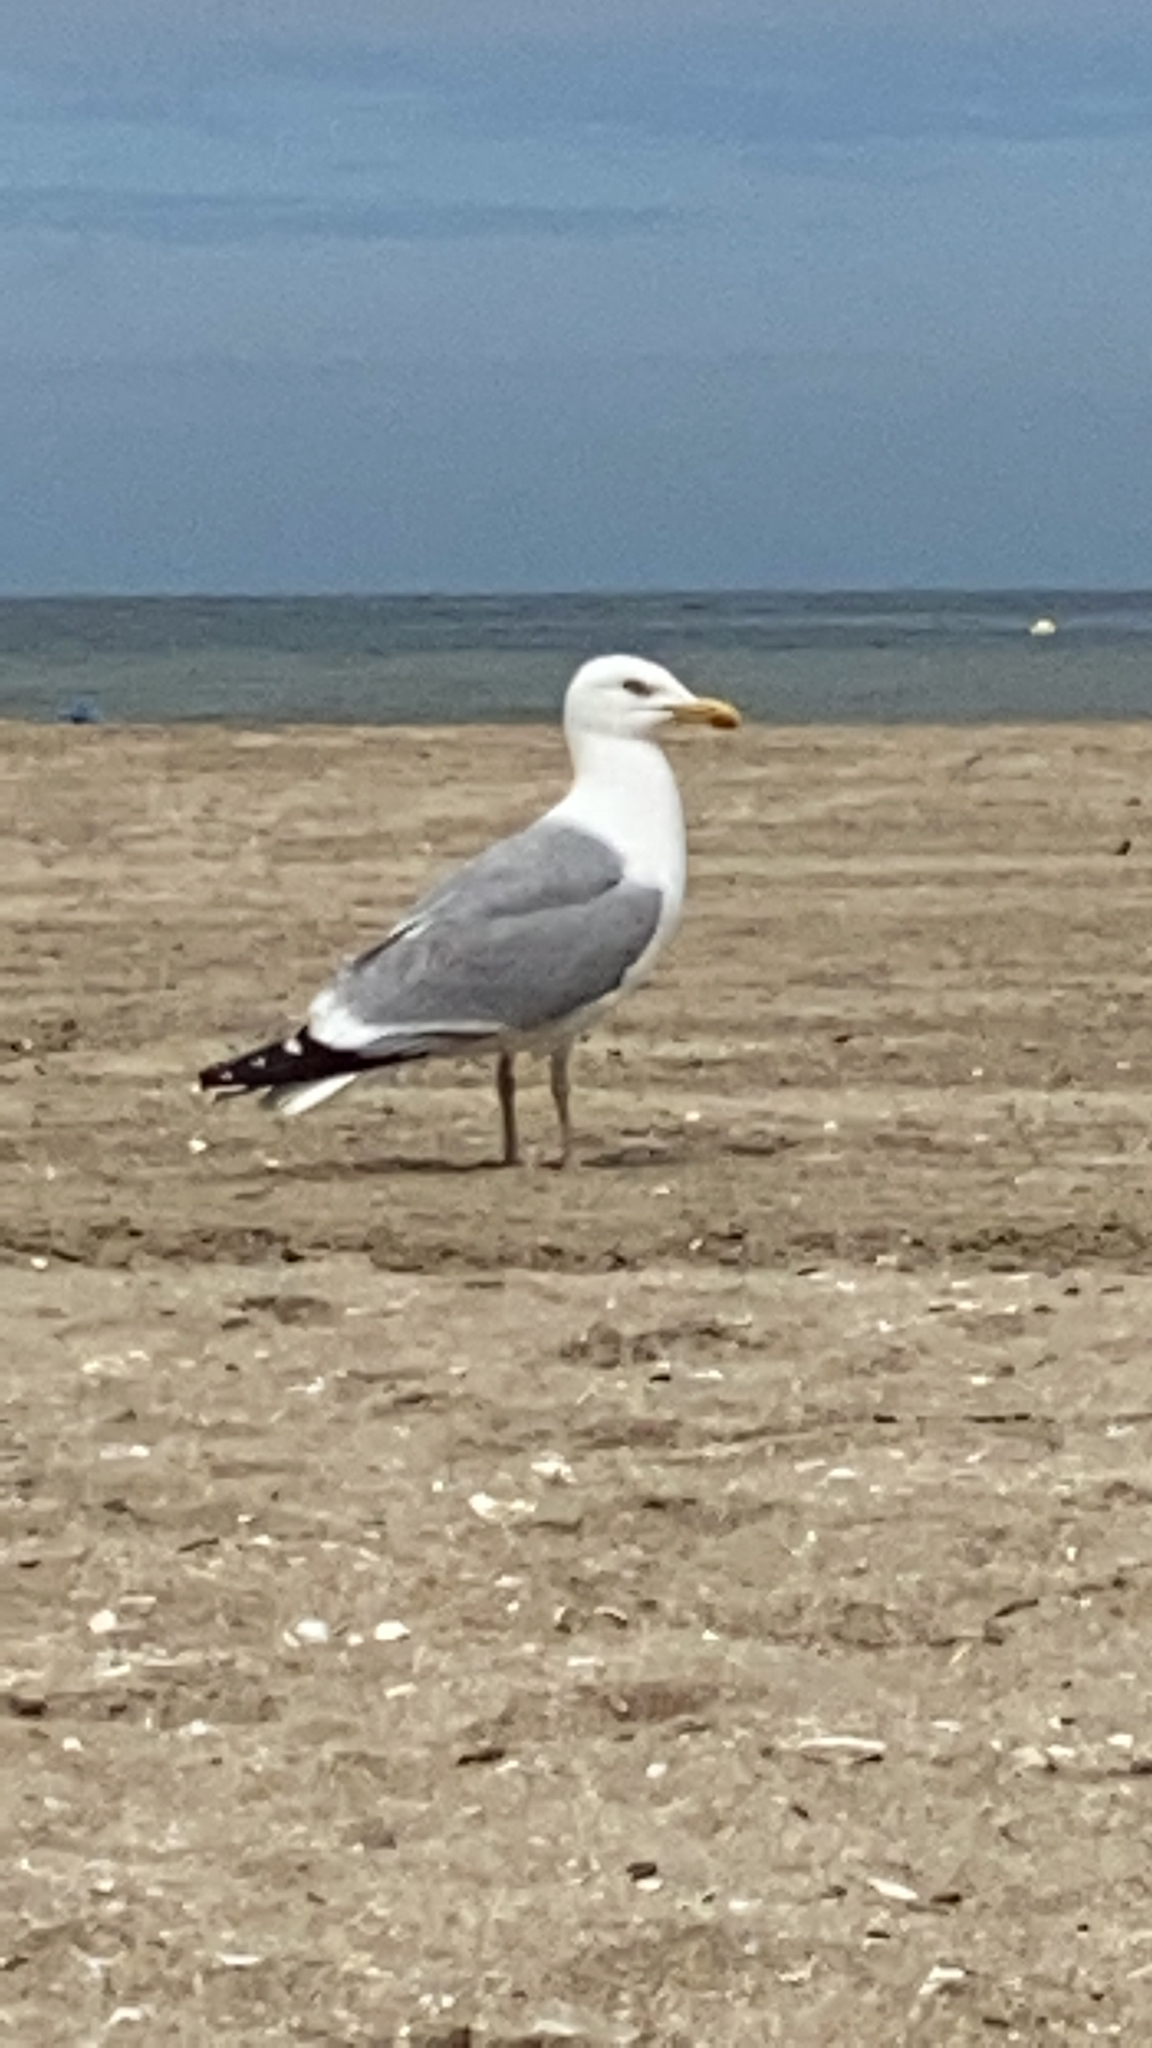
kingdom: Animalia
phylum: Chordata
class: Aves
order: Charadriiformes
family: Laridae
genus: Larus
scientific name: Larus argentatus
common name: Herring gull
